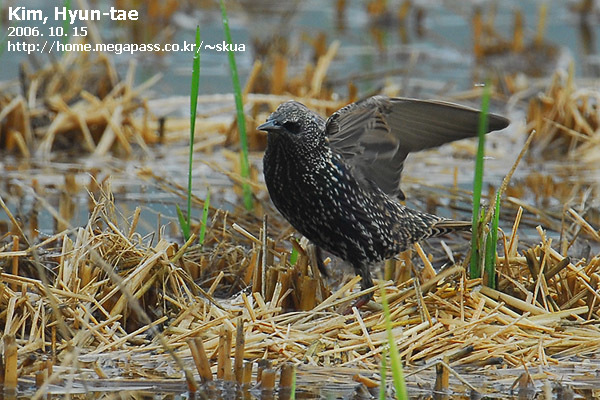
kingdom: Animalia
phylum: Chordata
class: Aves
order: Passeriformes
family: Sturnidae
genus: Sturnus
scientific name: Sturnus vulgaris
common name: Common starling
